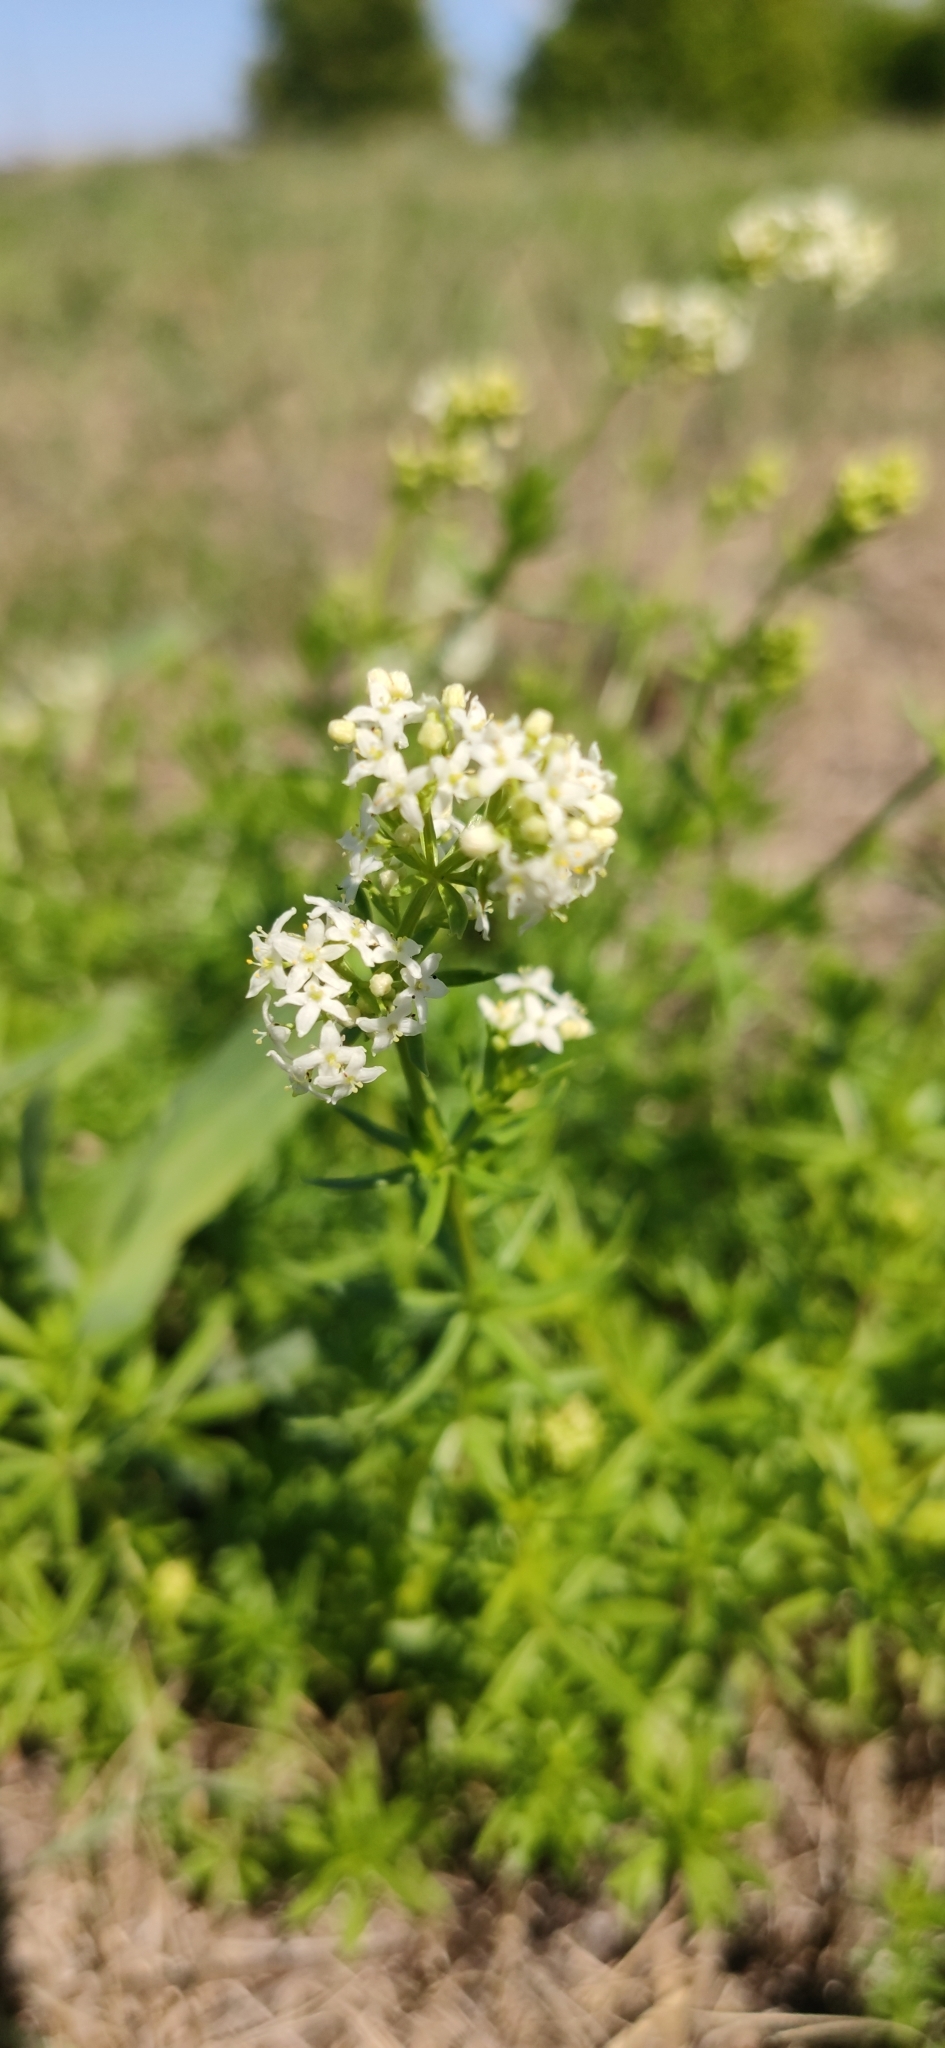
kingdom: Plantae
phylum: Tracheophyta
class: Magnoliopsida
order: Gentianales
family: Rubiaceae
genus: Galium
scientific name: Galium mollugo
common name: Hedge bedstraw
